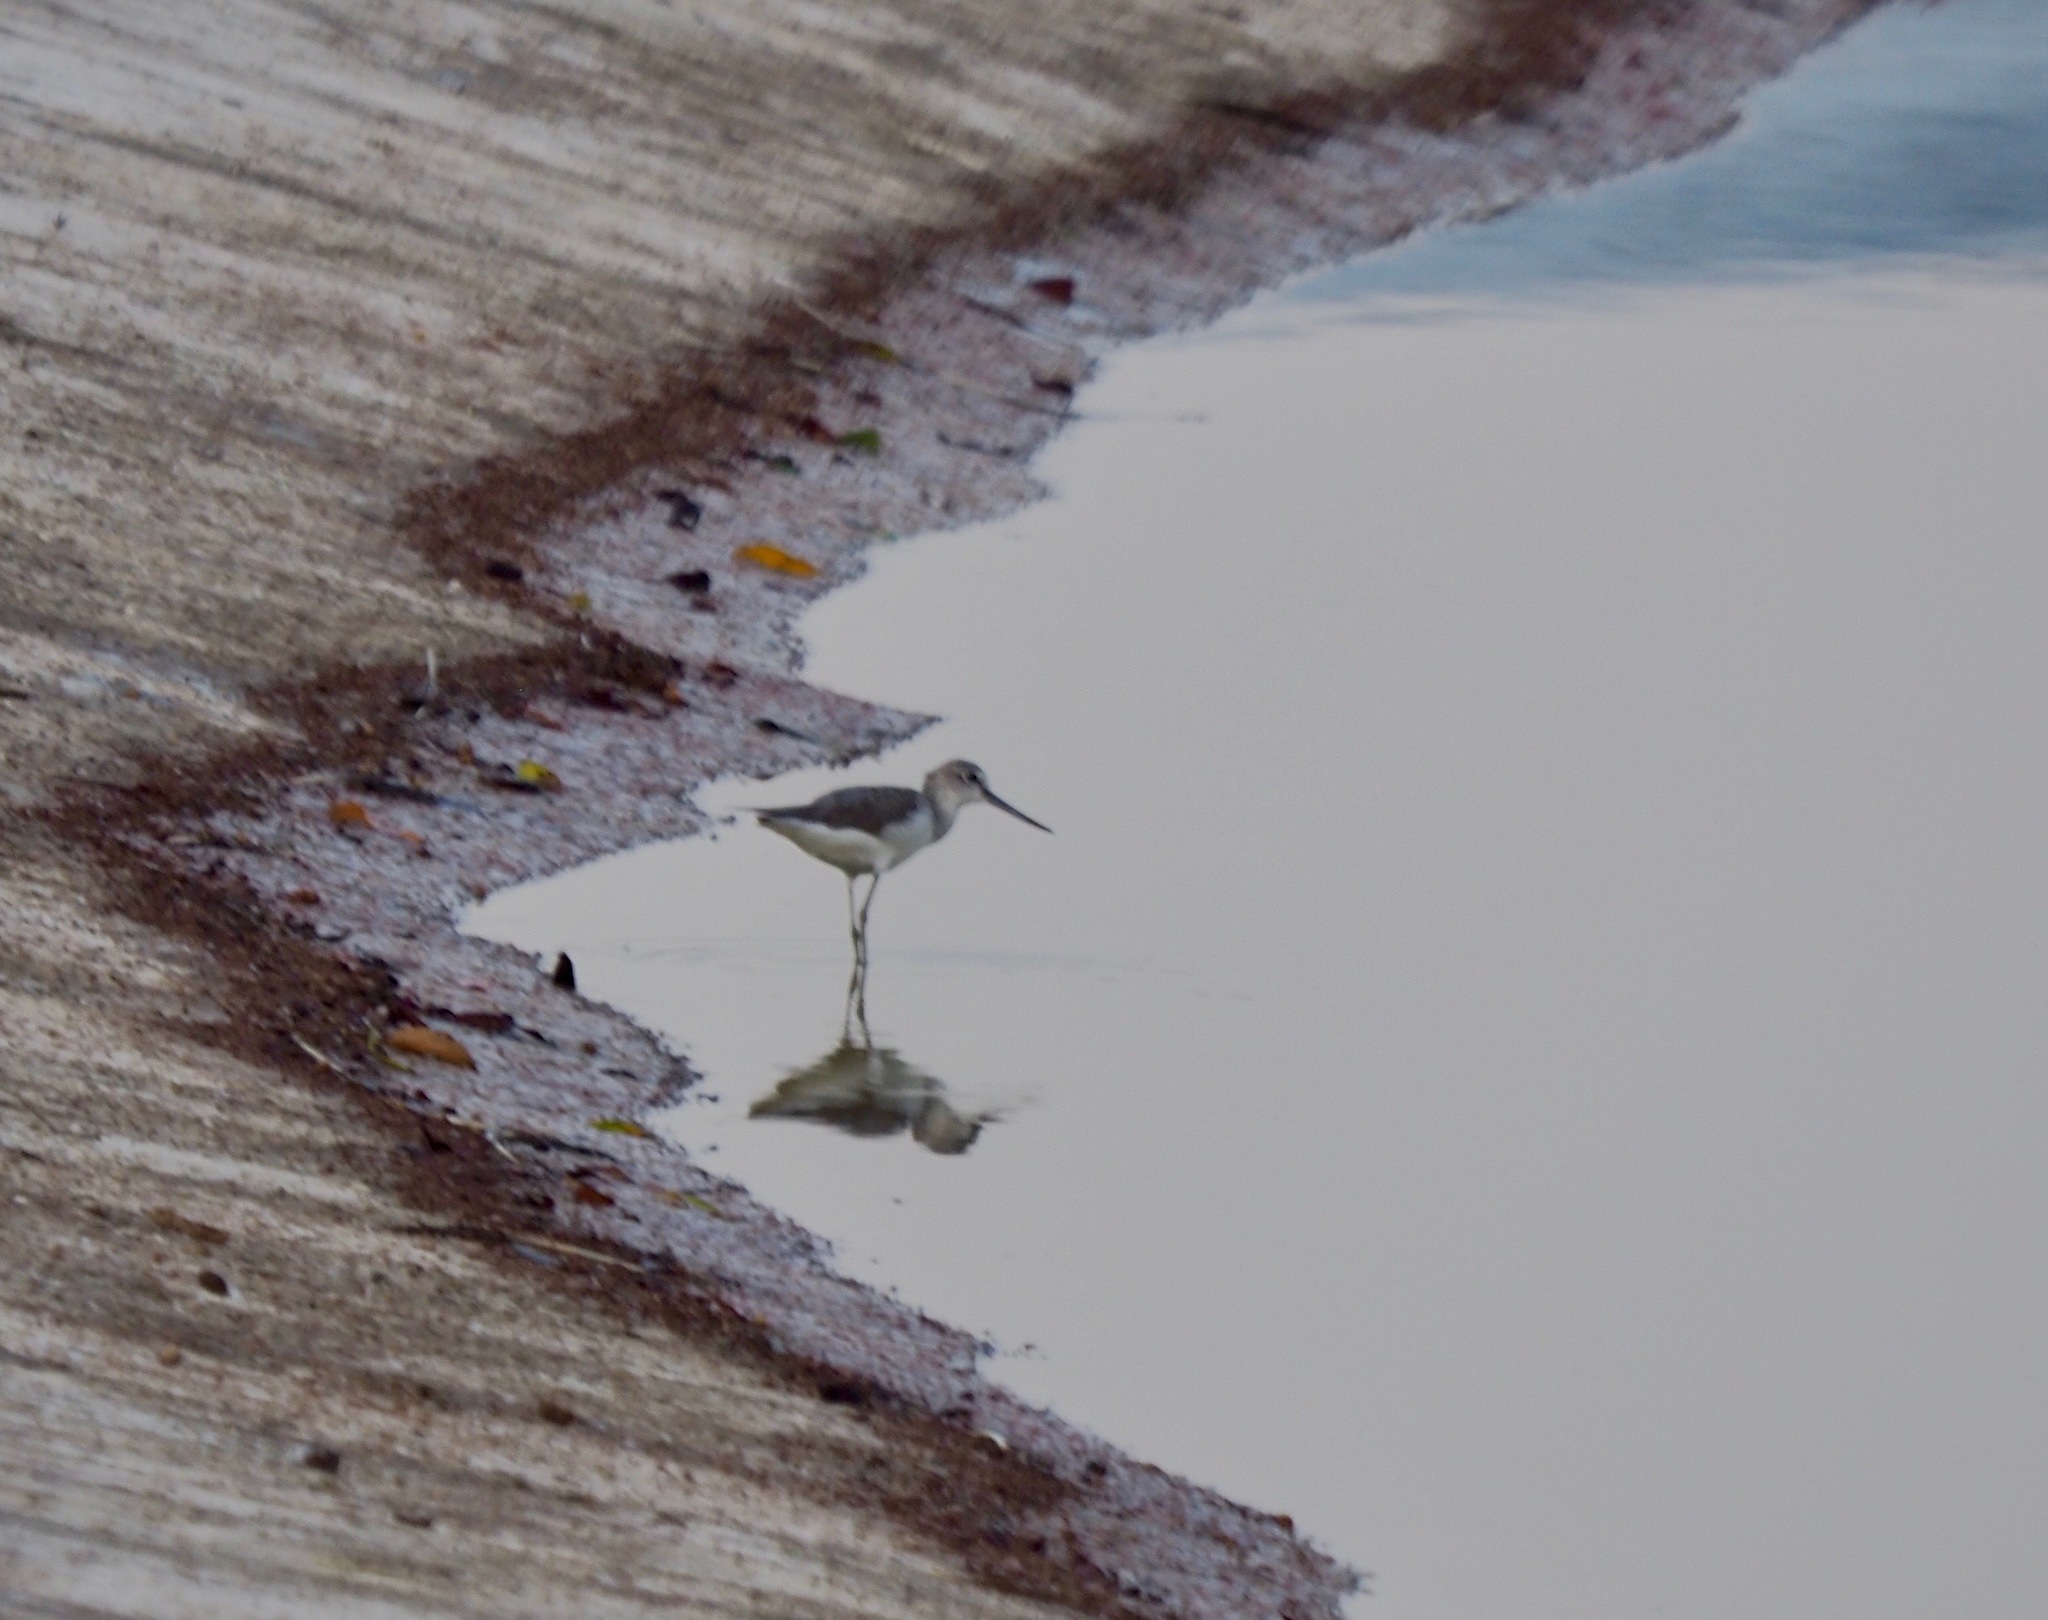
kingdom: Animalia
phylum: Chordata
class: Aves
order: Charadriiformes
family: Scolopacidae
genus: Tringa
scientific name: Tringa nebularia
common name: Common greenshank
